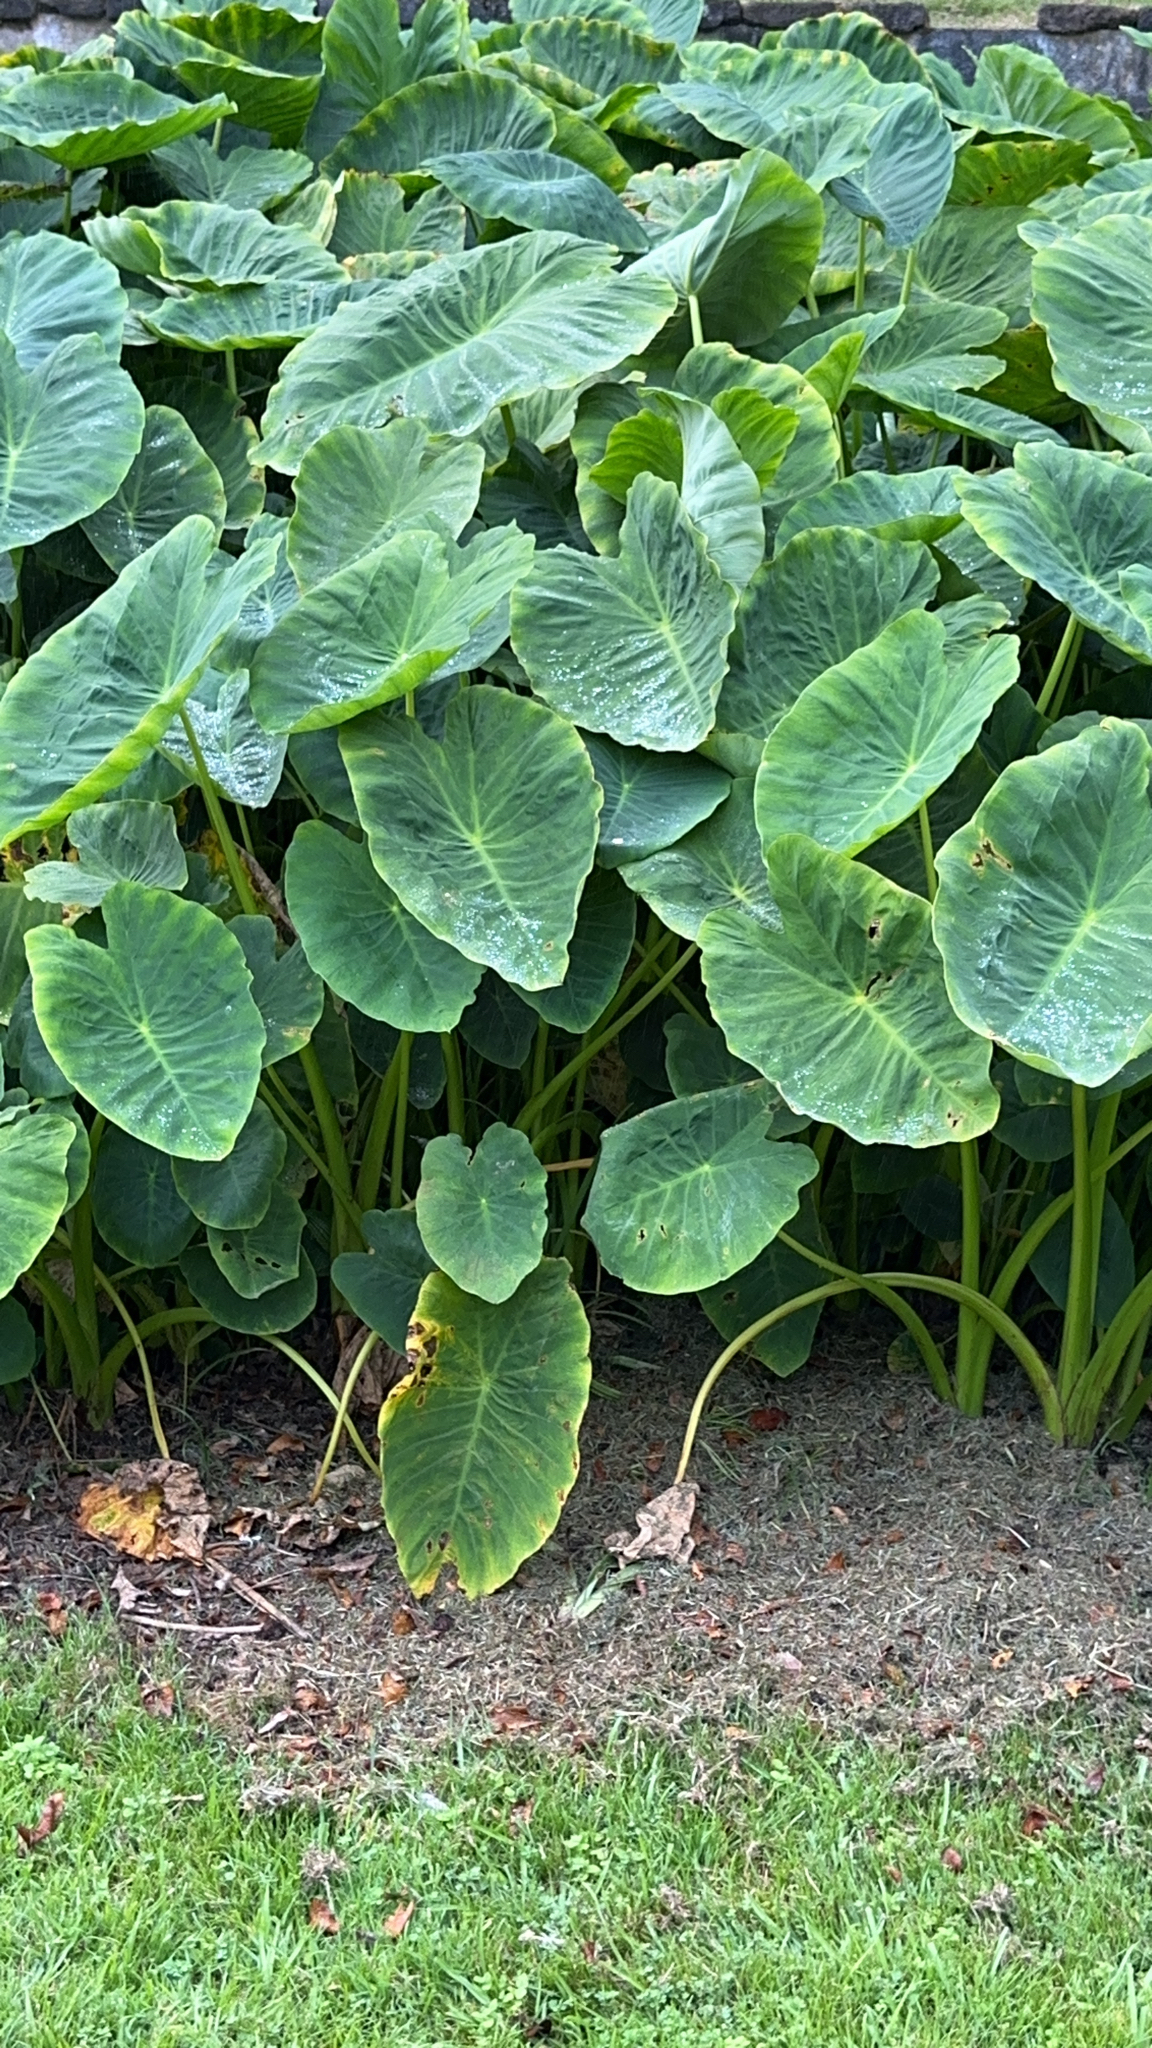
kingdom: Plantae
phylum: Tracheophyta
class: Liliopsida
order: Alismatales
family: Araceae
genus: Colocasia
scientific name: Colocasia esculenta
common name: Taro
